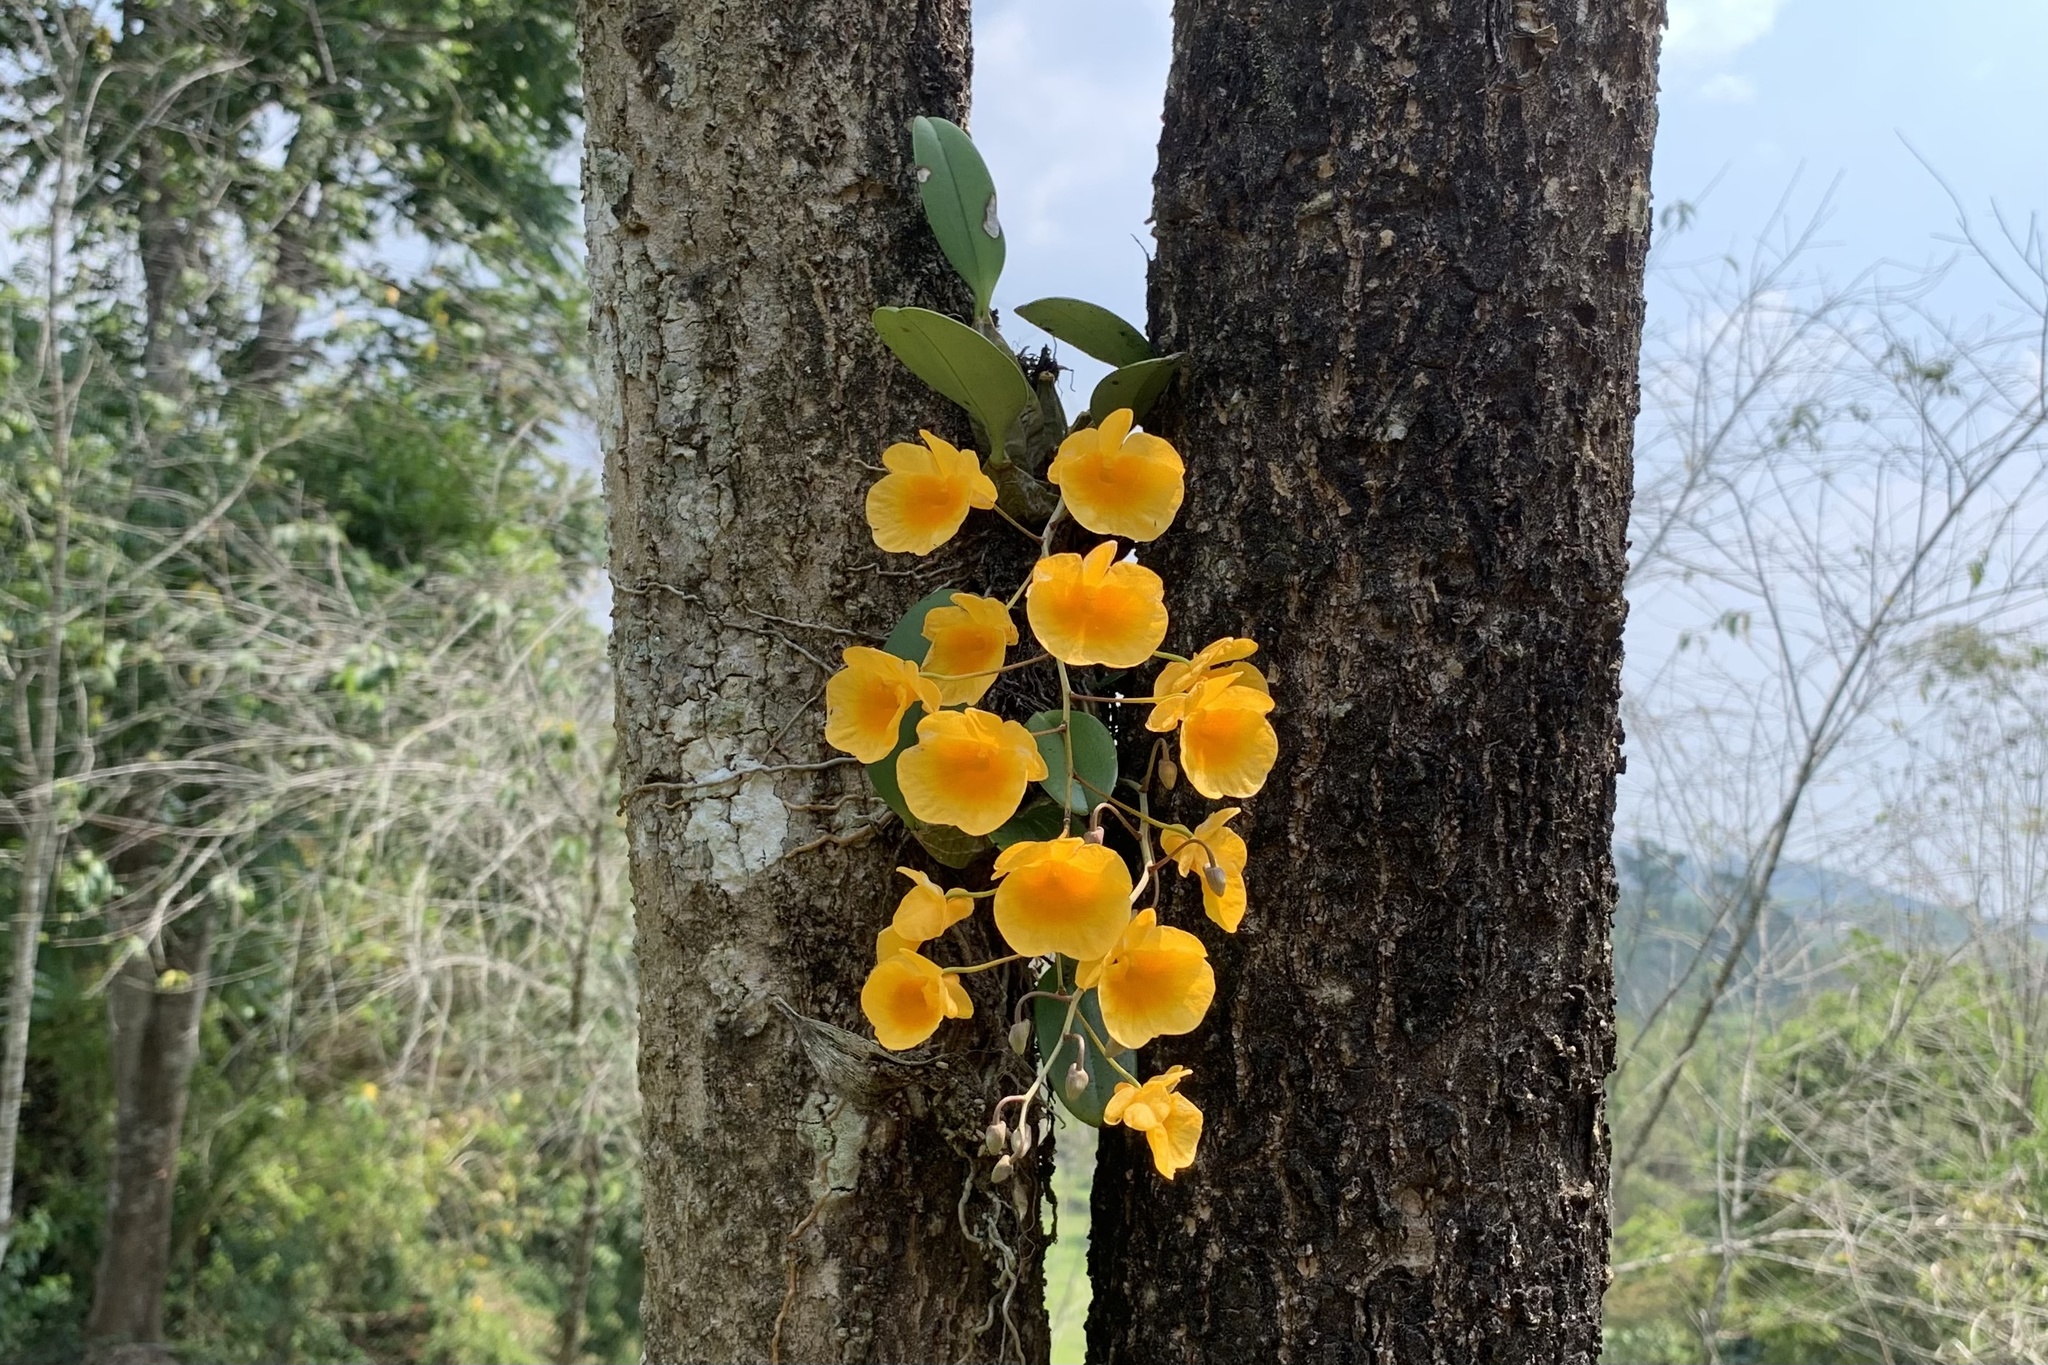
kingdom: Plantae
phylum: Tracheophyta
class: Liliopsida
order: Asparagales
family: Orchidaceae
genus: Dendrobium
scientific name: Dendrobium lindleyi
